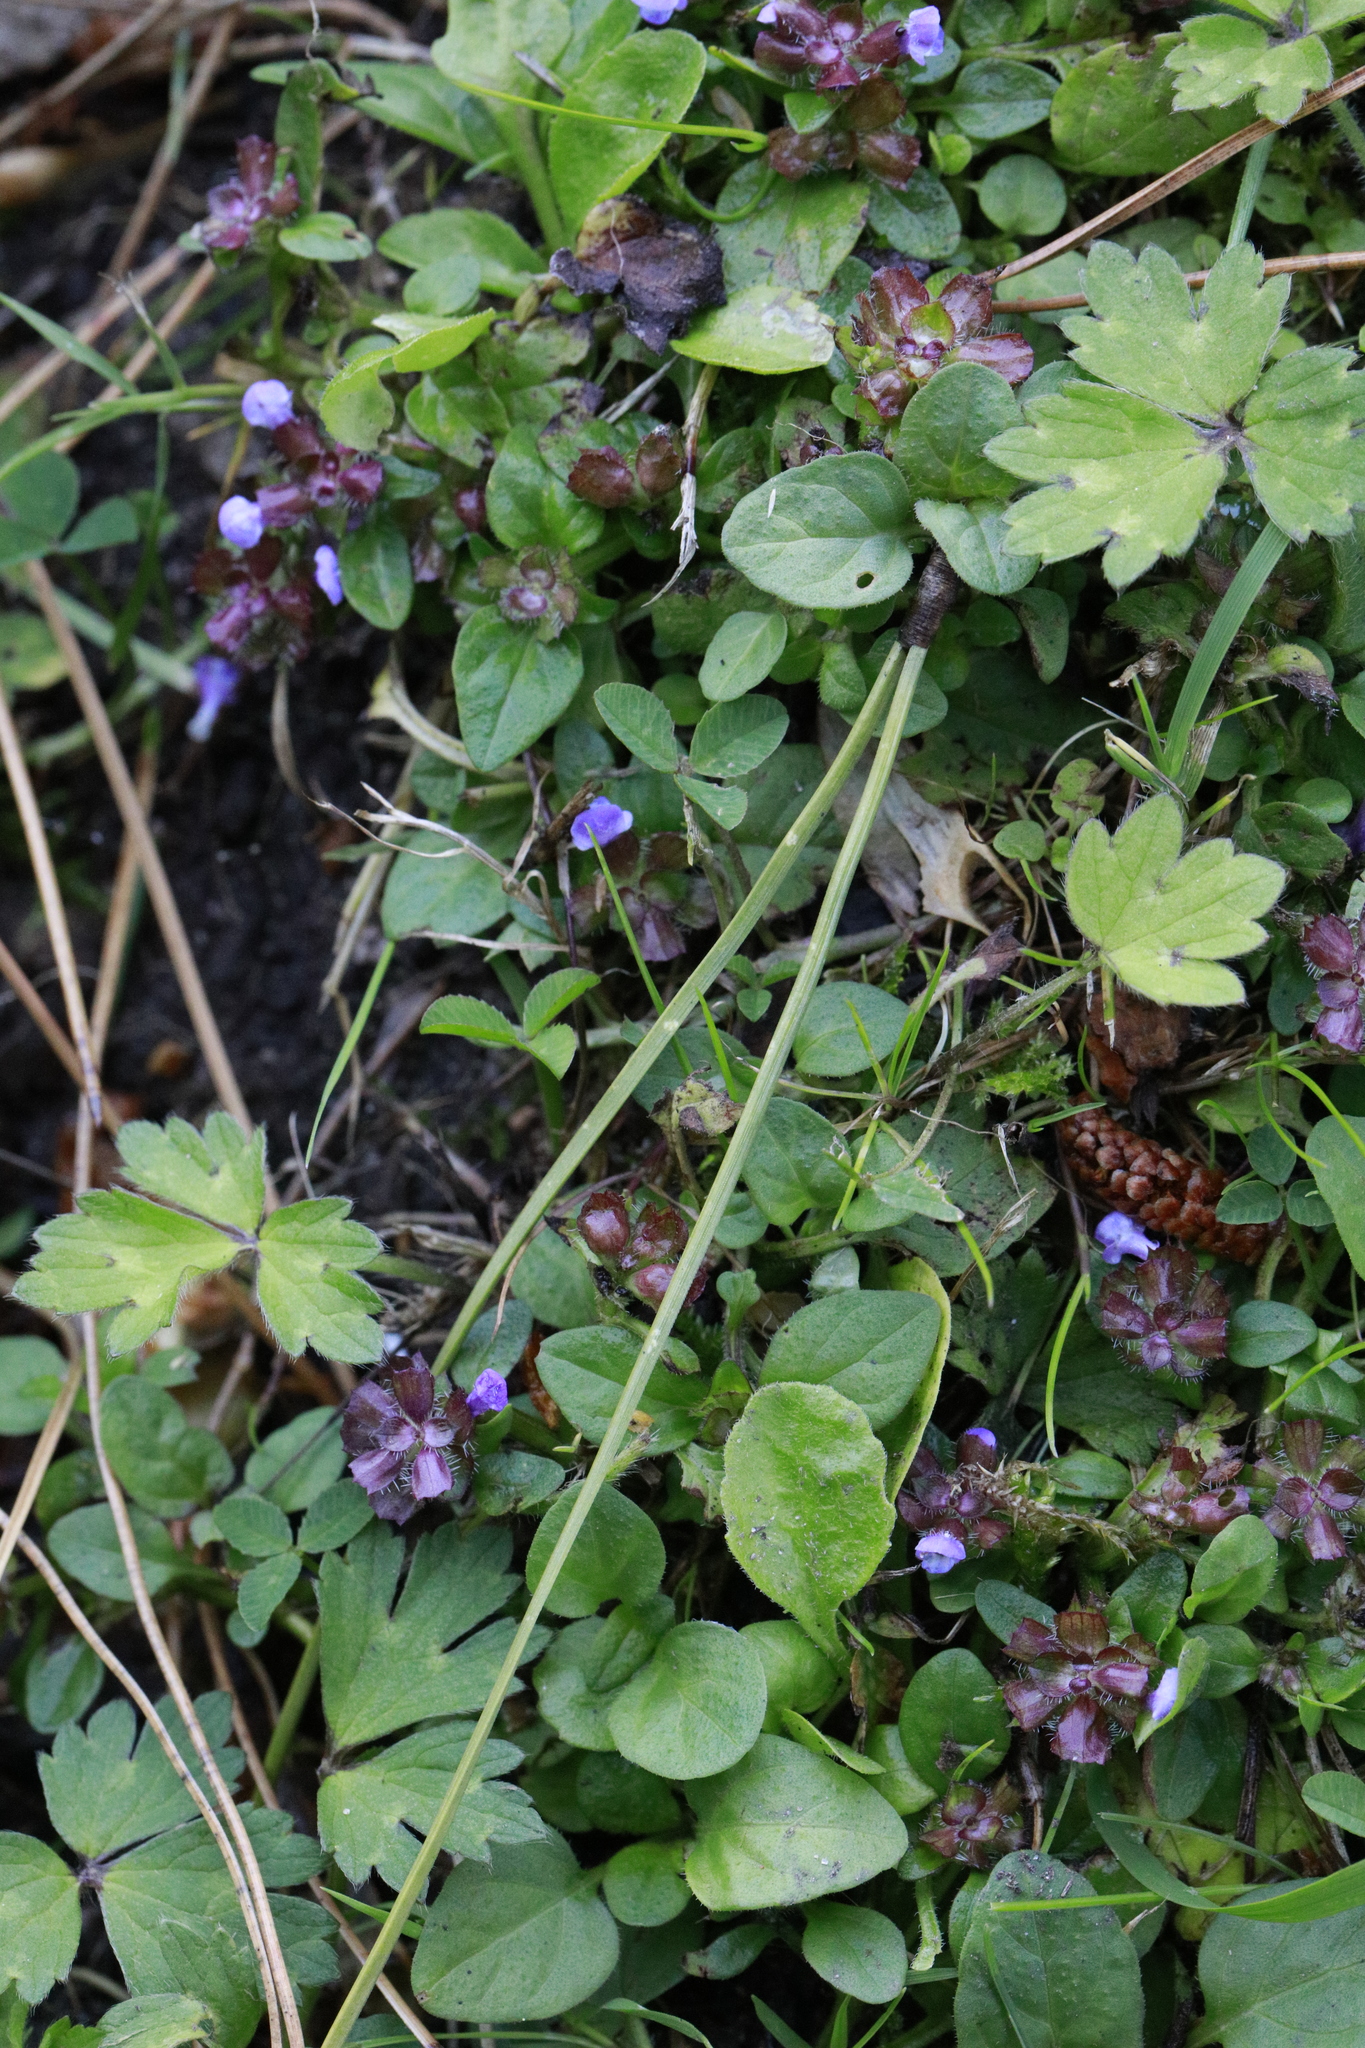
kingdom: Plantae
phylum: Tracheophyta
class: Magnoliopsida
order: Lamiales
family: Lamiaceae
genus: Prunella
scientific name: Prunella vulgaris
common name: Heal-all
